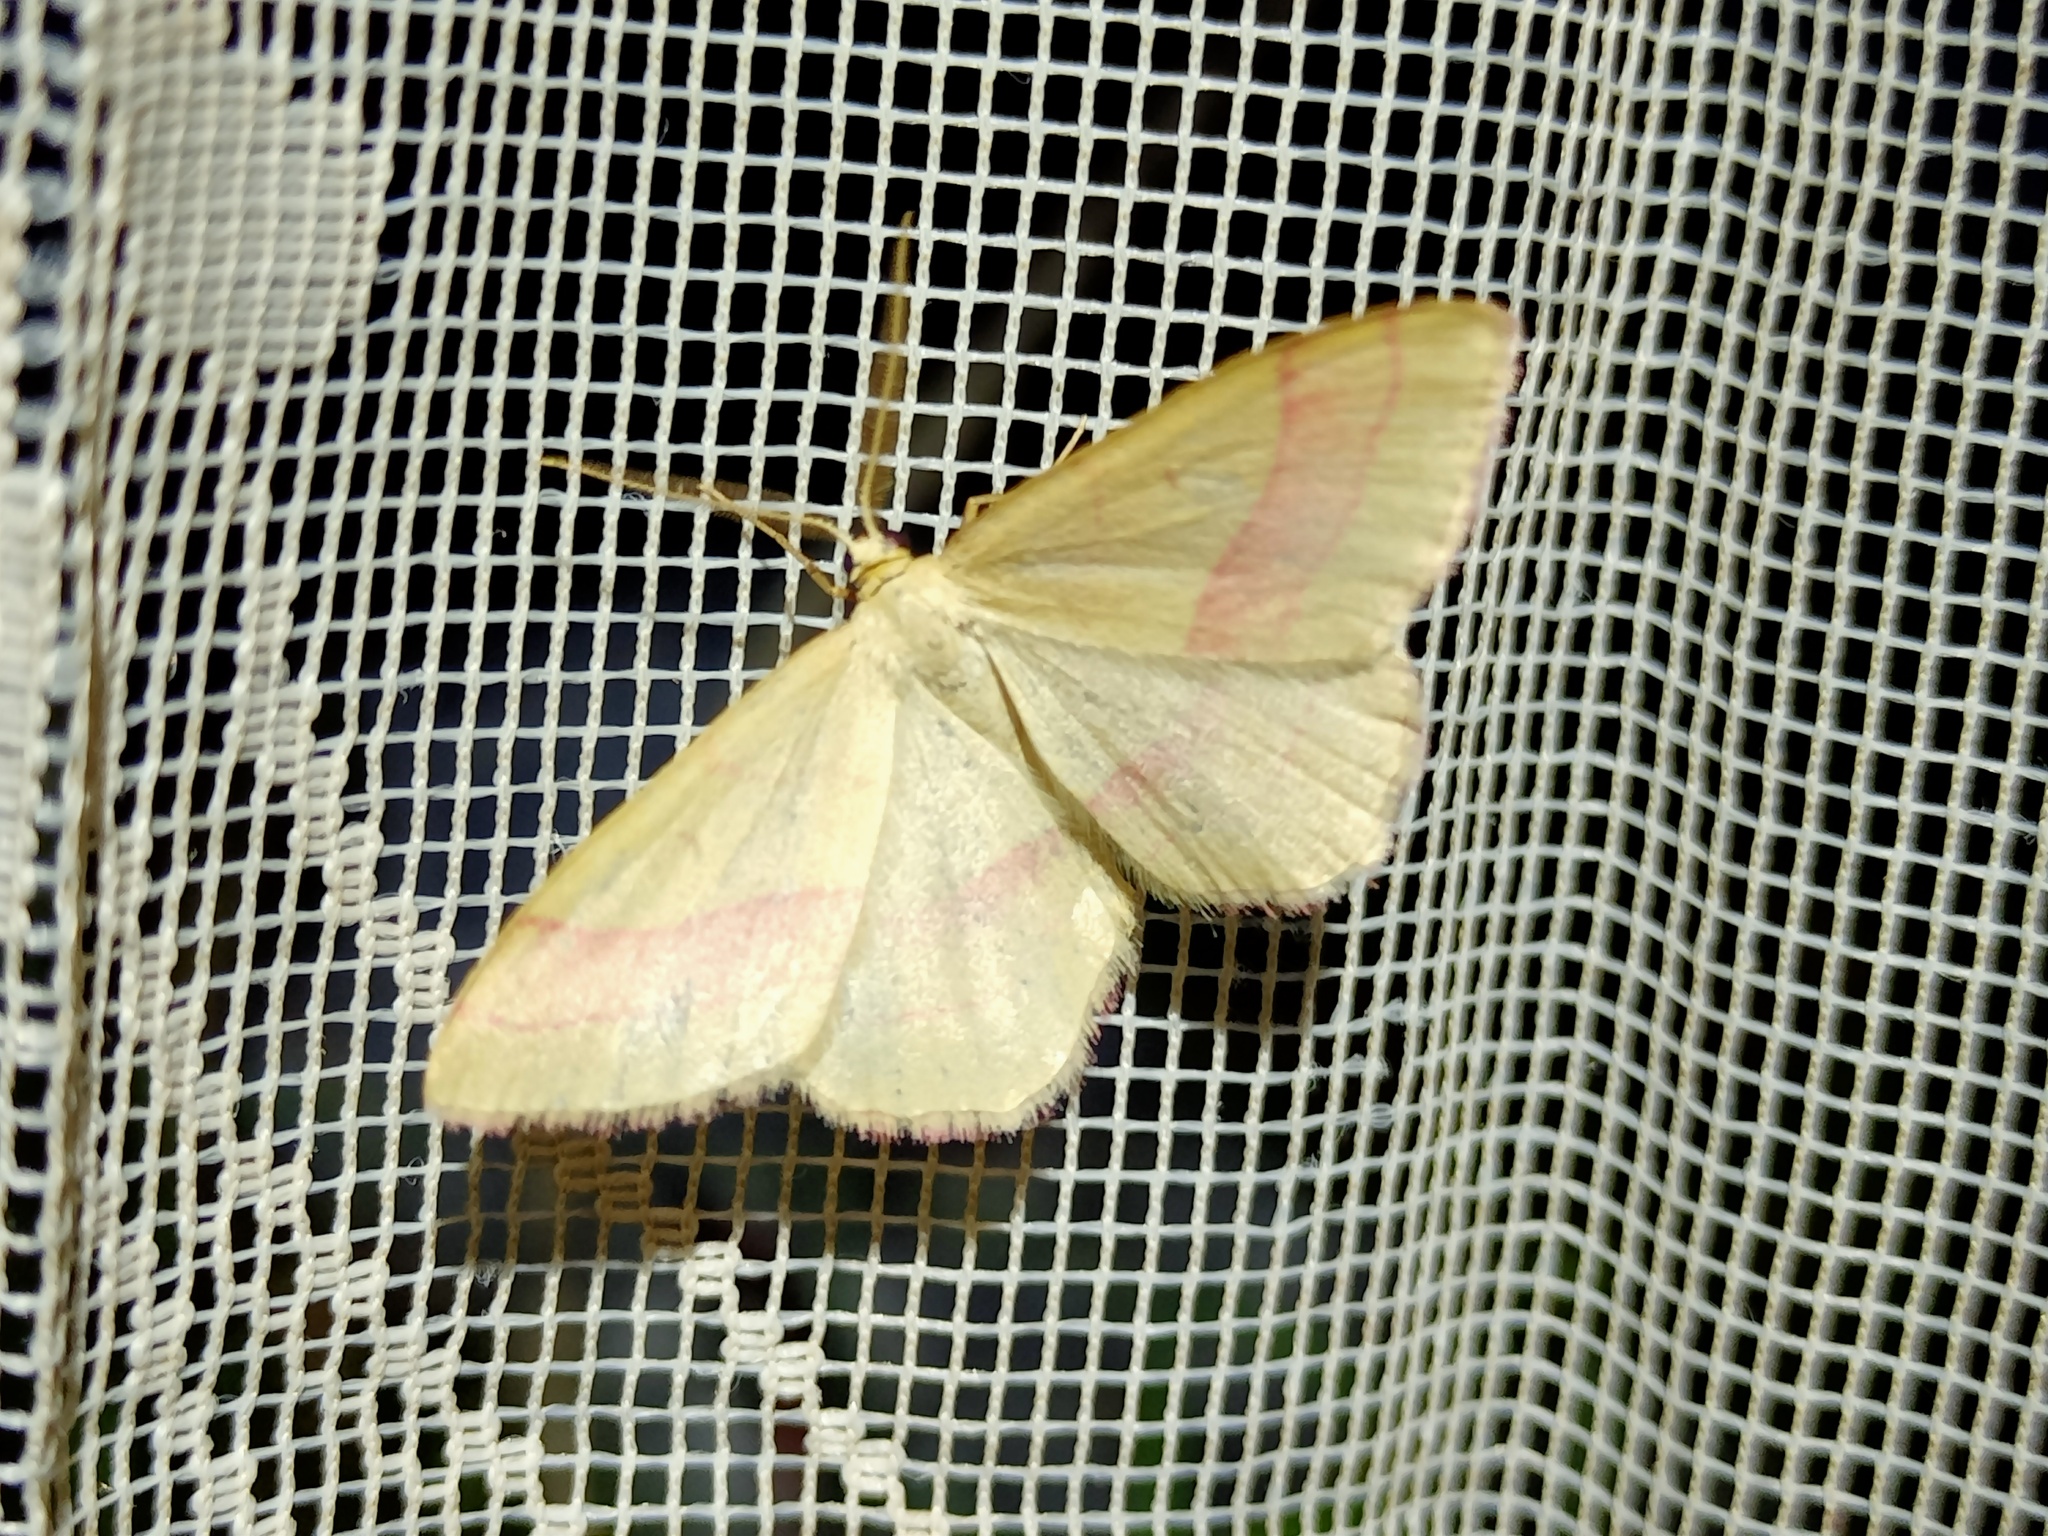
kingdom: Animalia
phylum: Arthropoda
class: Insecta
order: Lepidoptera
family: Geometridae
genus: Rhodostrophia
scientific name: Rhodostrophia vibicaria
